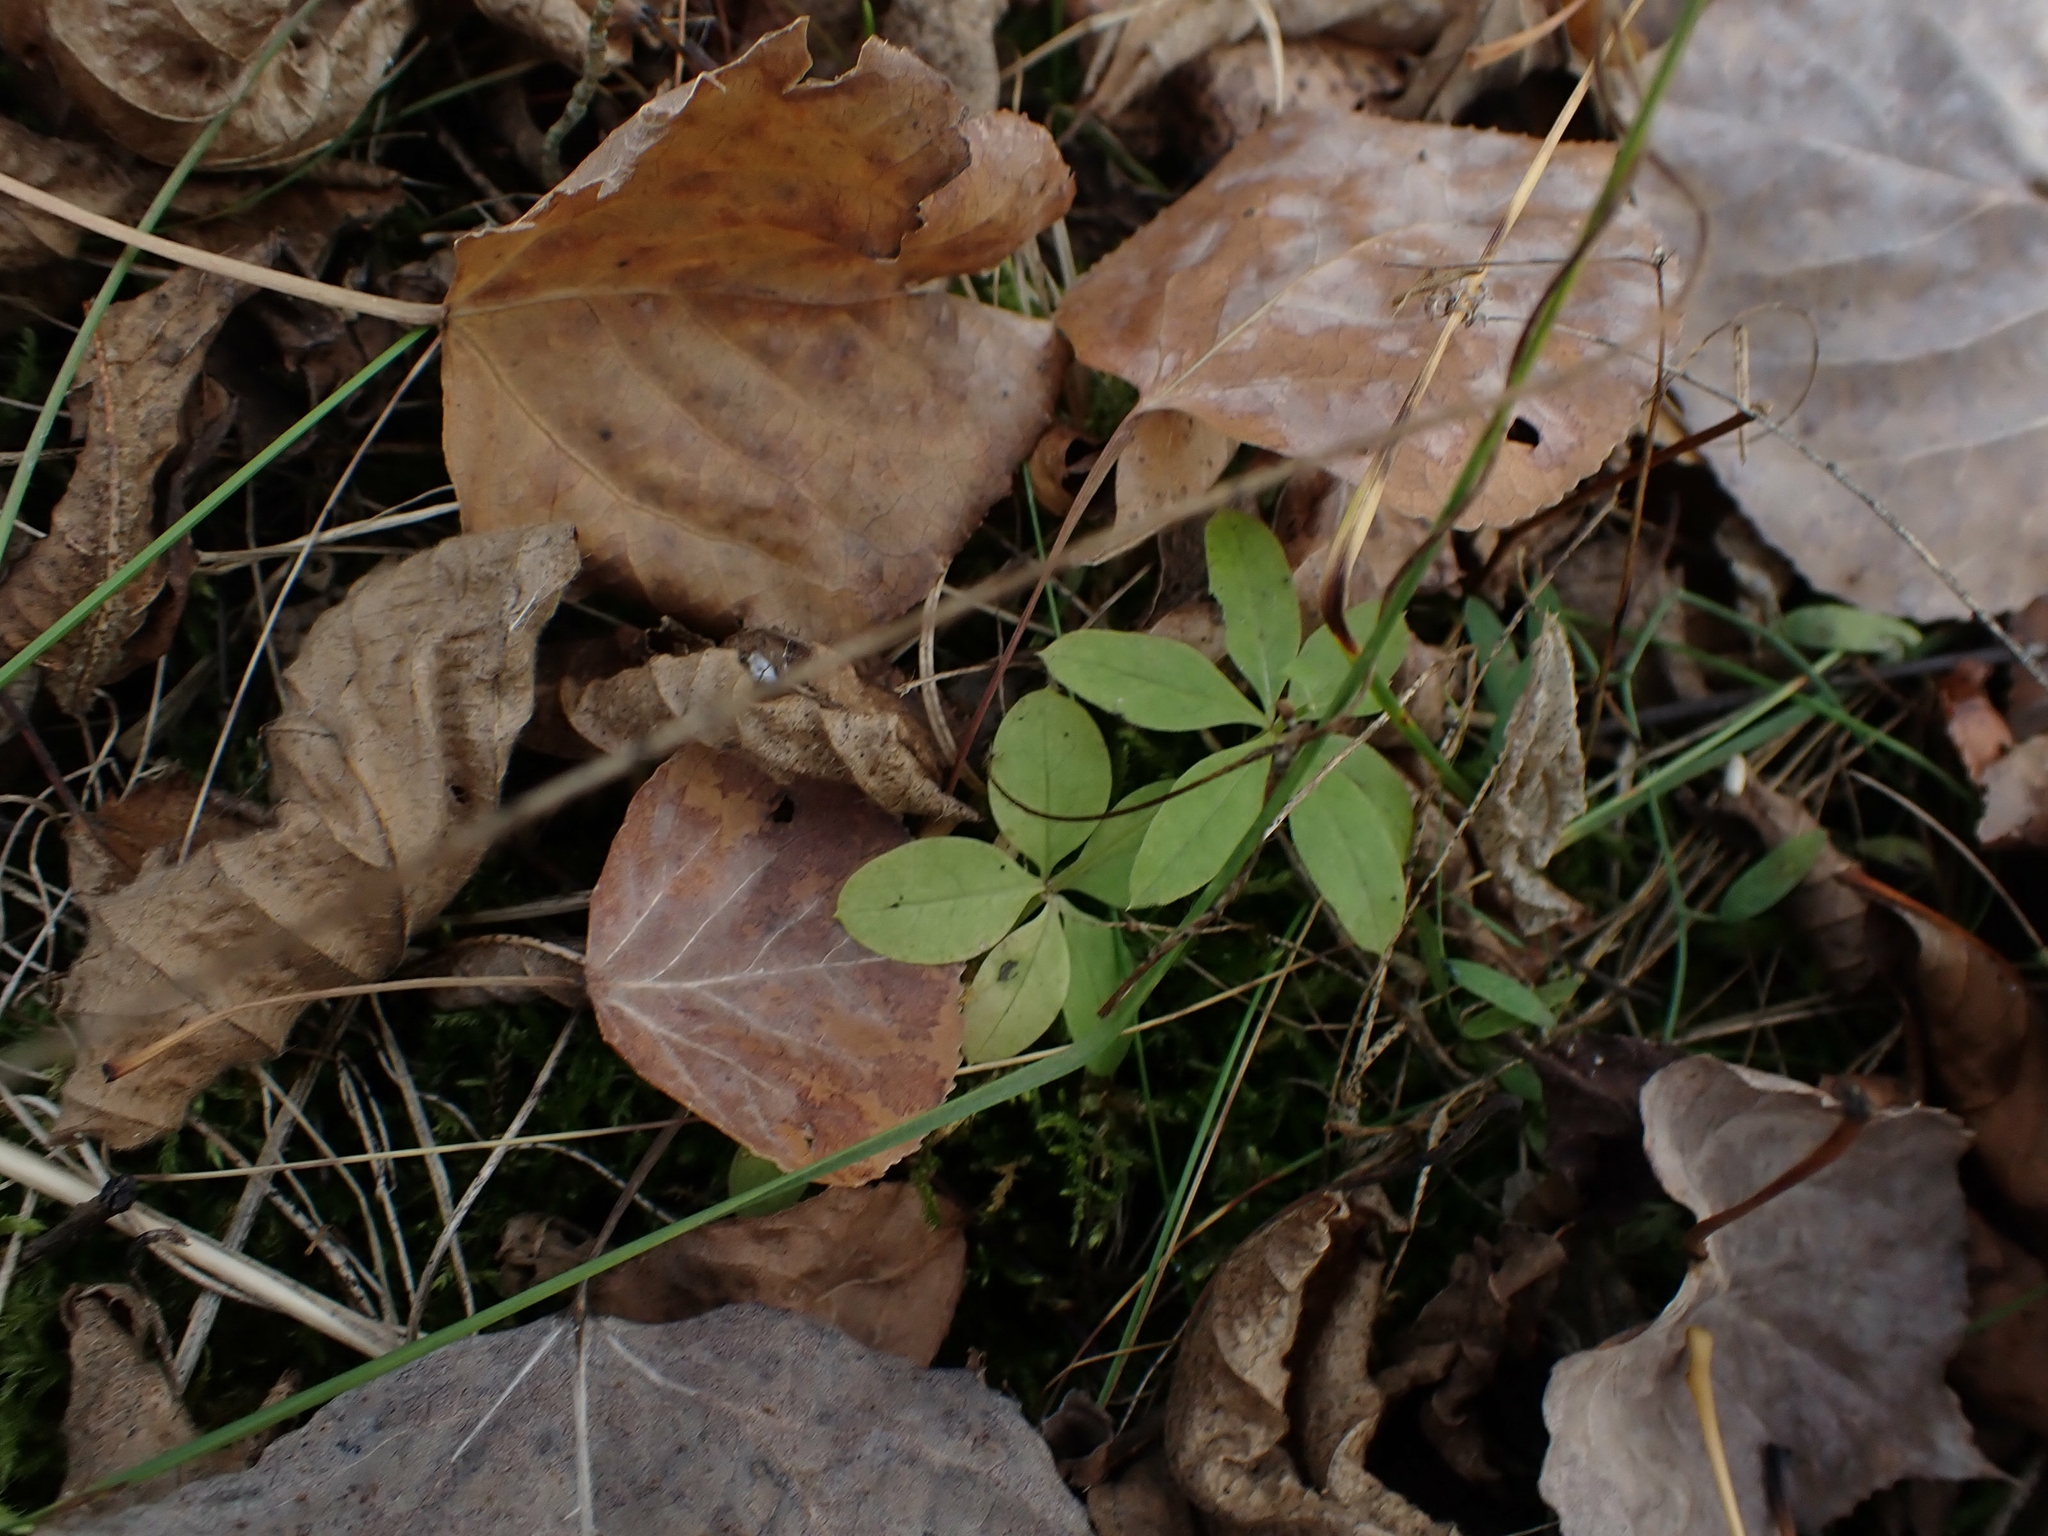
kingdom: Plantae
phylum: Tracheophyta
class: Magnoliopsida
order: Gentianales
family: Rubiaceae
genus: Galium
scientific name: Galium triflorum
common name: Fragrant bedstraw
